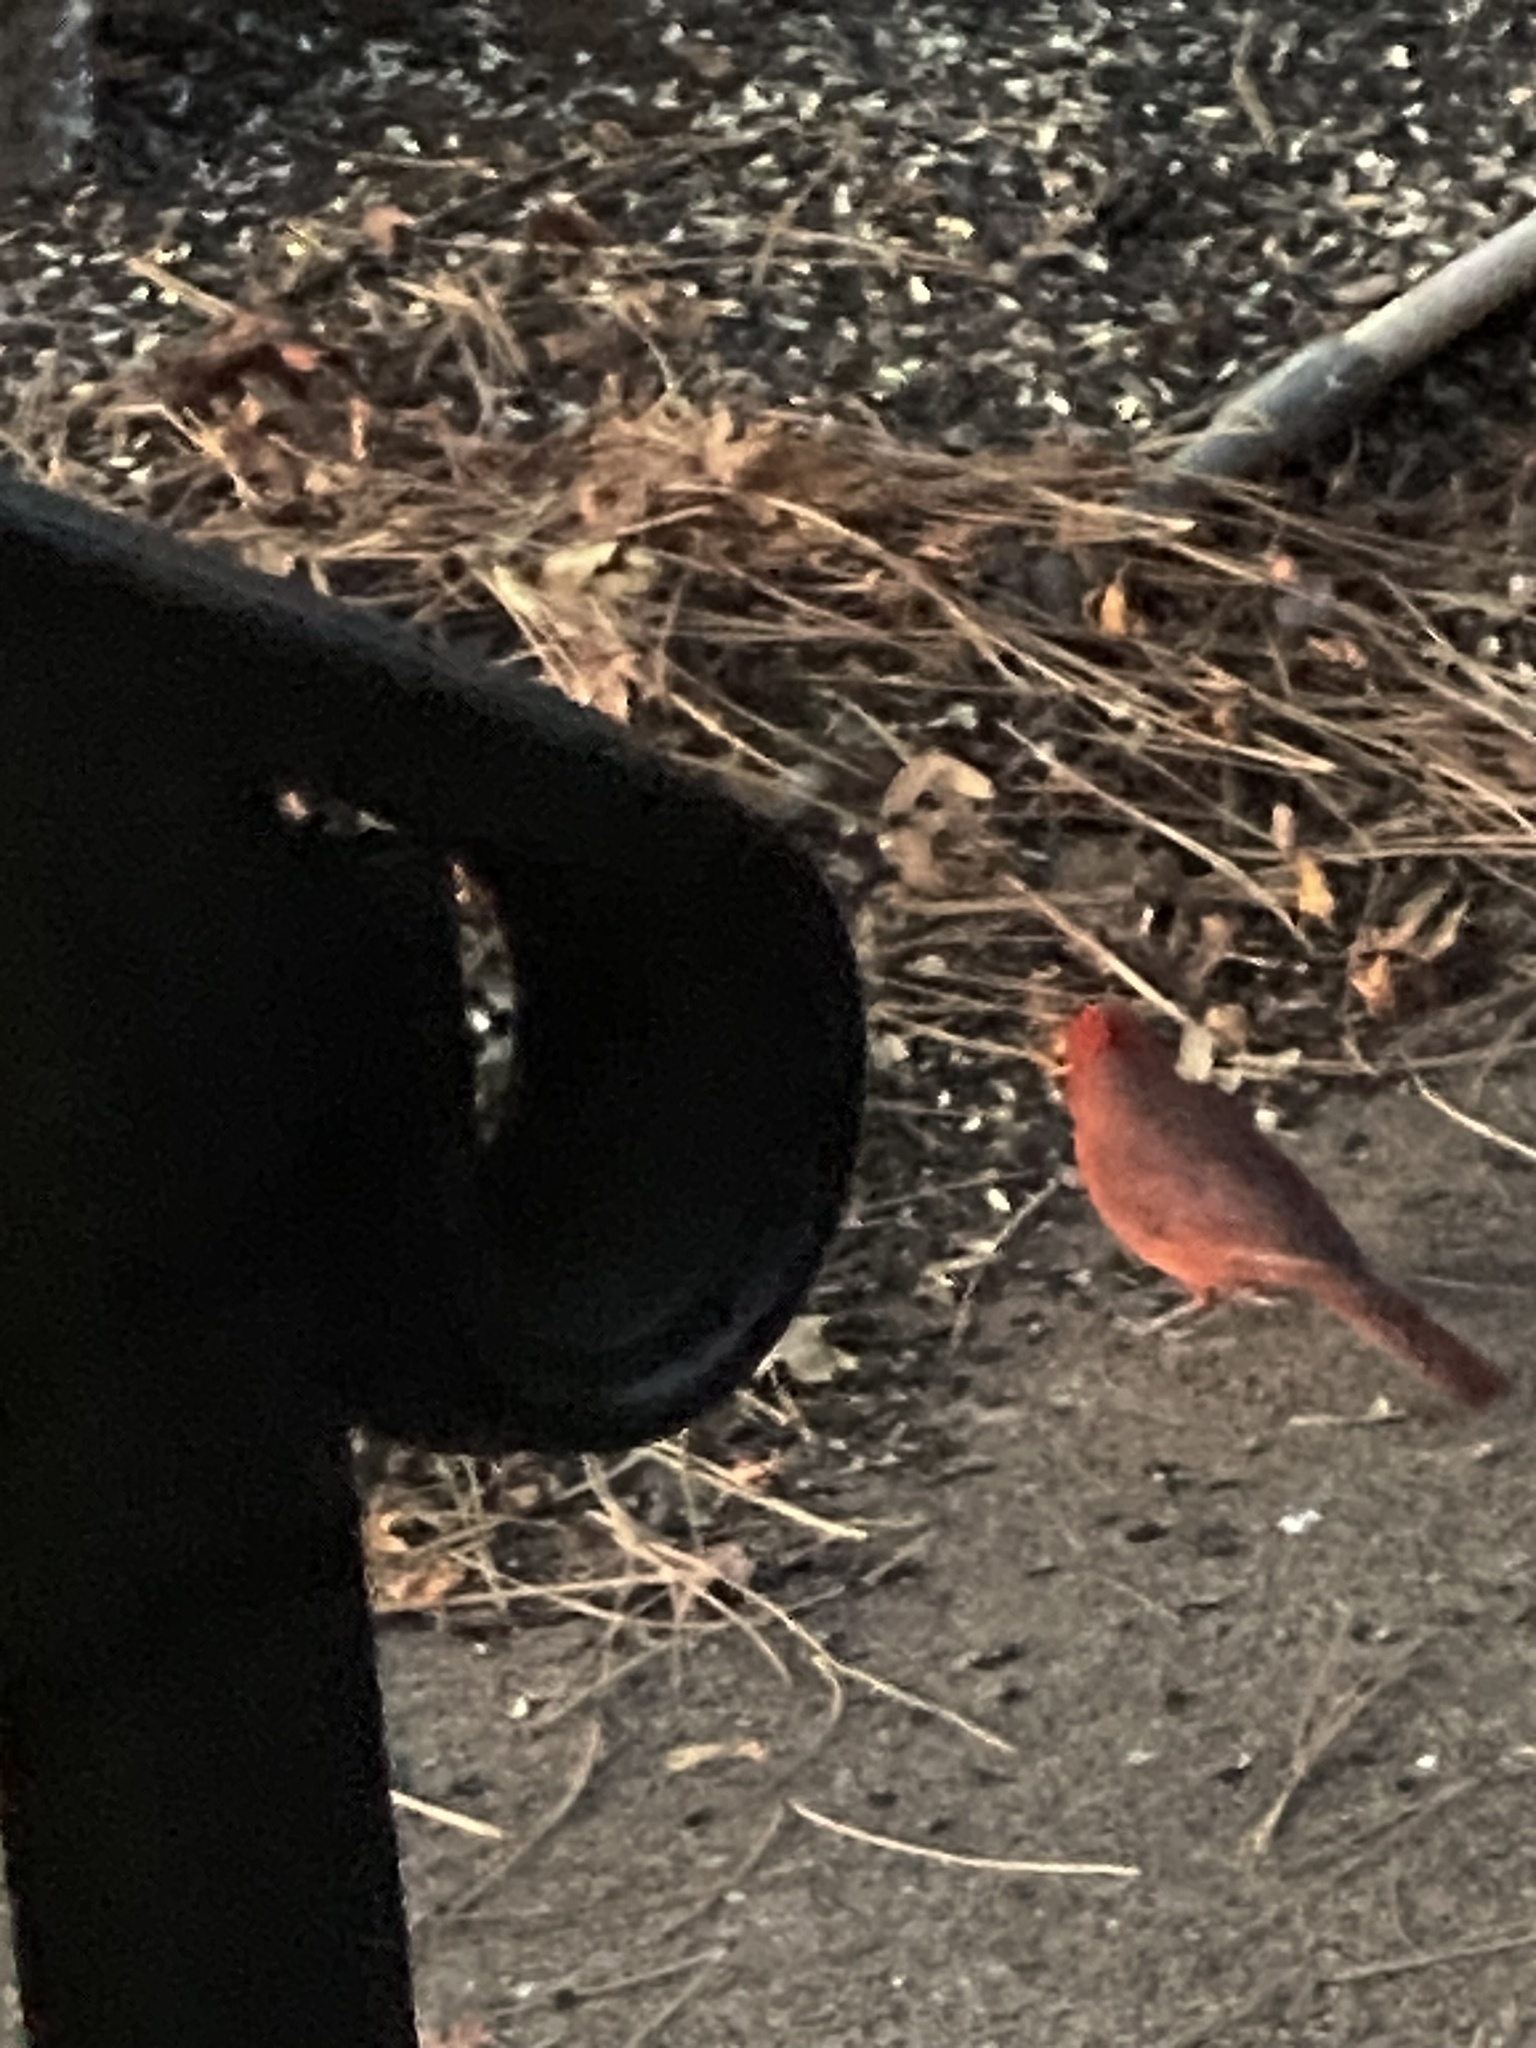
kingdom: Animalia
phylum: Chordata
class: Aves
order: Passeriformes
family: Cardinalidae
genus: Cardinalis
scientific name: Cardinalis cardinalis
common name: Northern cardinal
